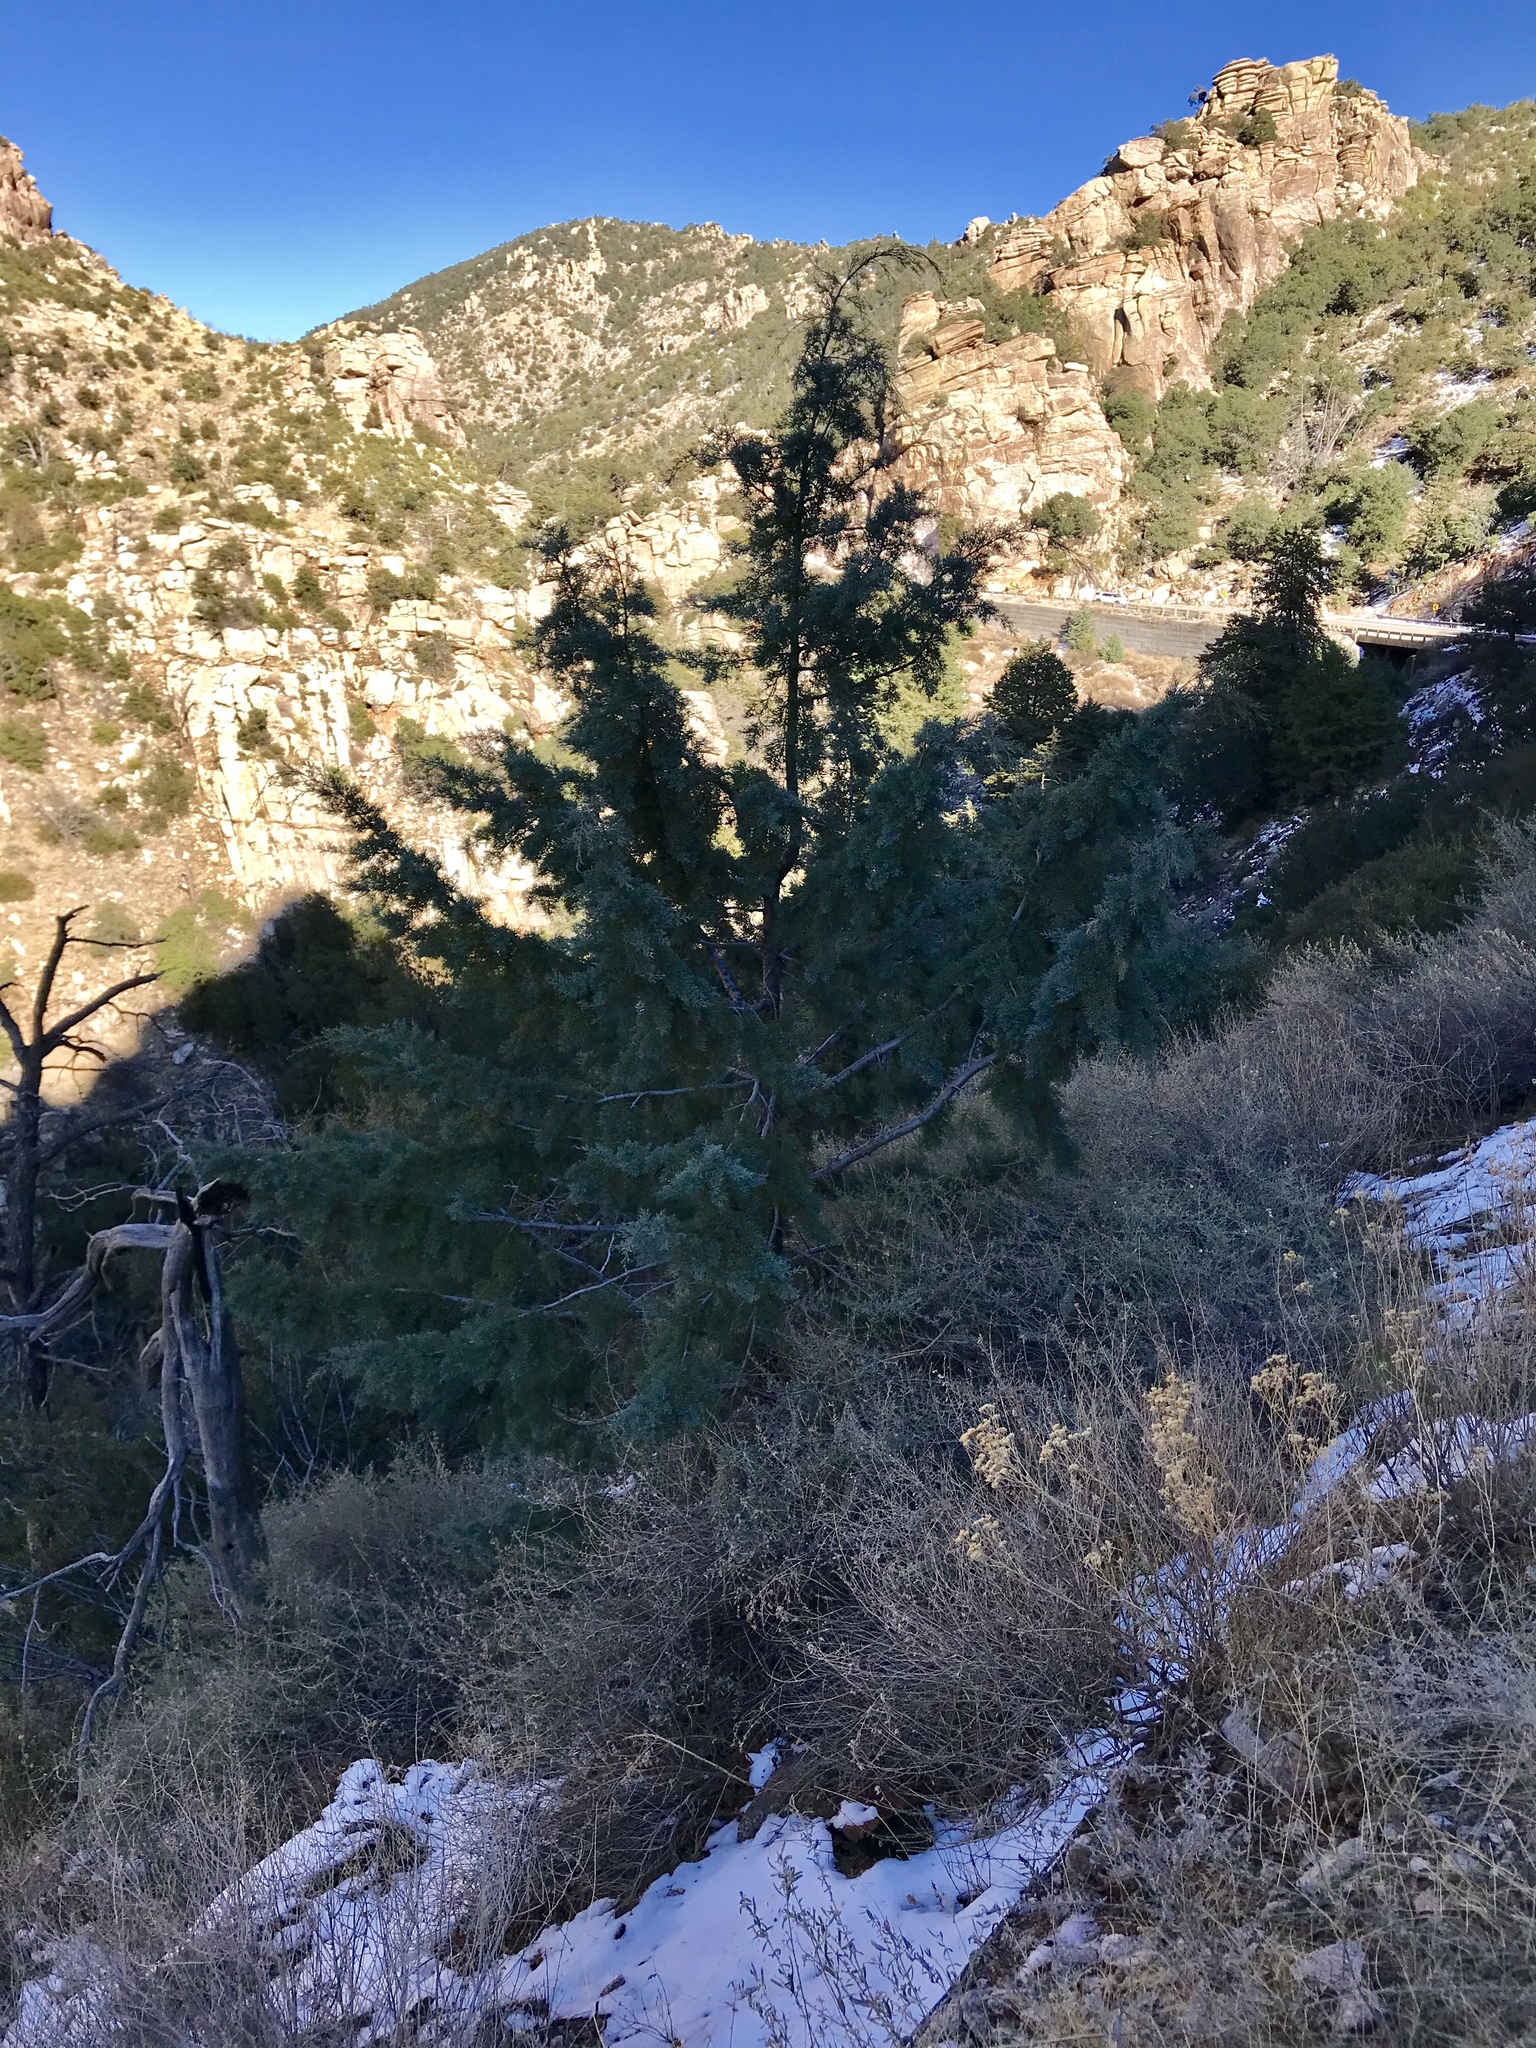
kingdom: Plantae
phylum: Tracheophyta
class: Pinopsida
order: Pinales
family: Cupressaceae
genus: Cupressus
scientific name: Cupressus arizonica
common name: Arizona cypress
